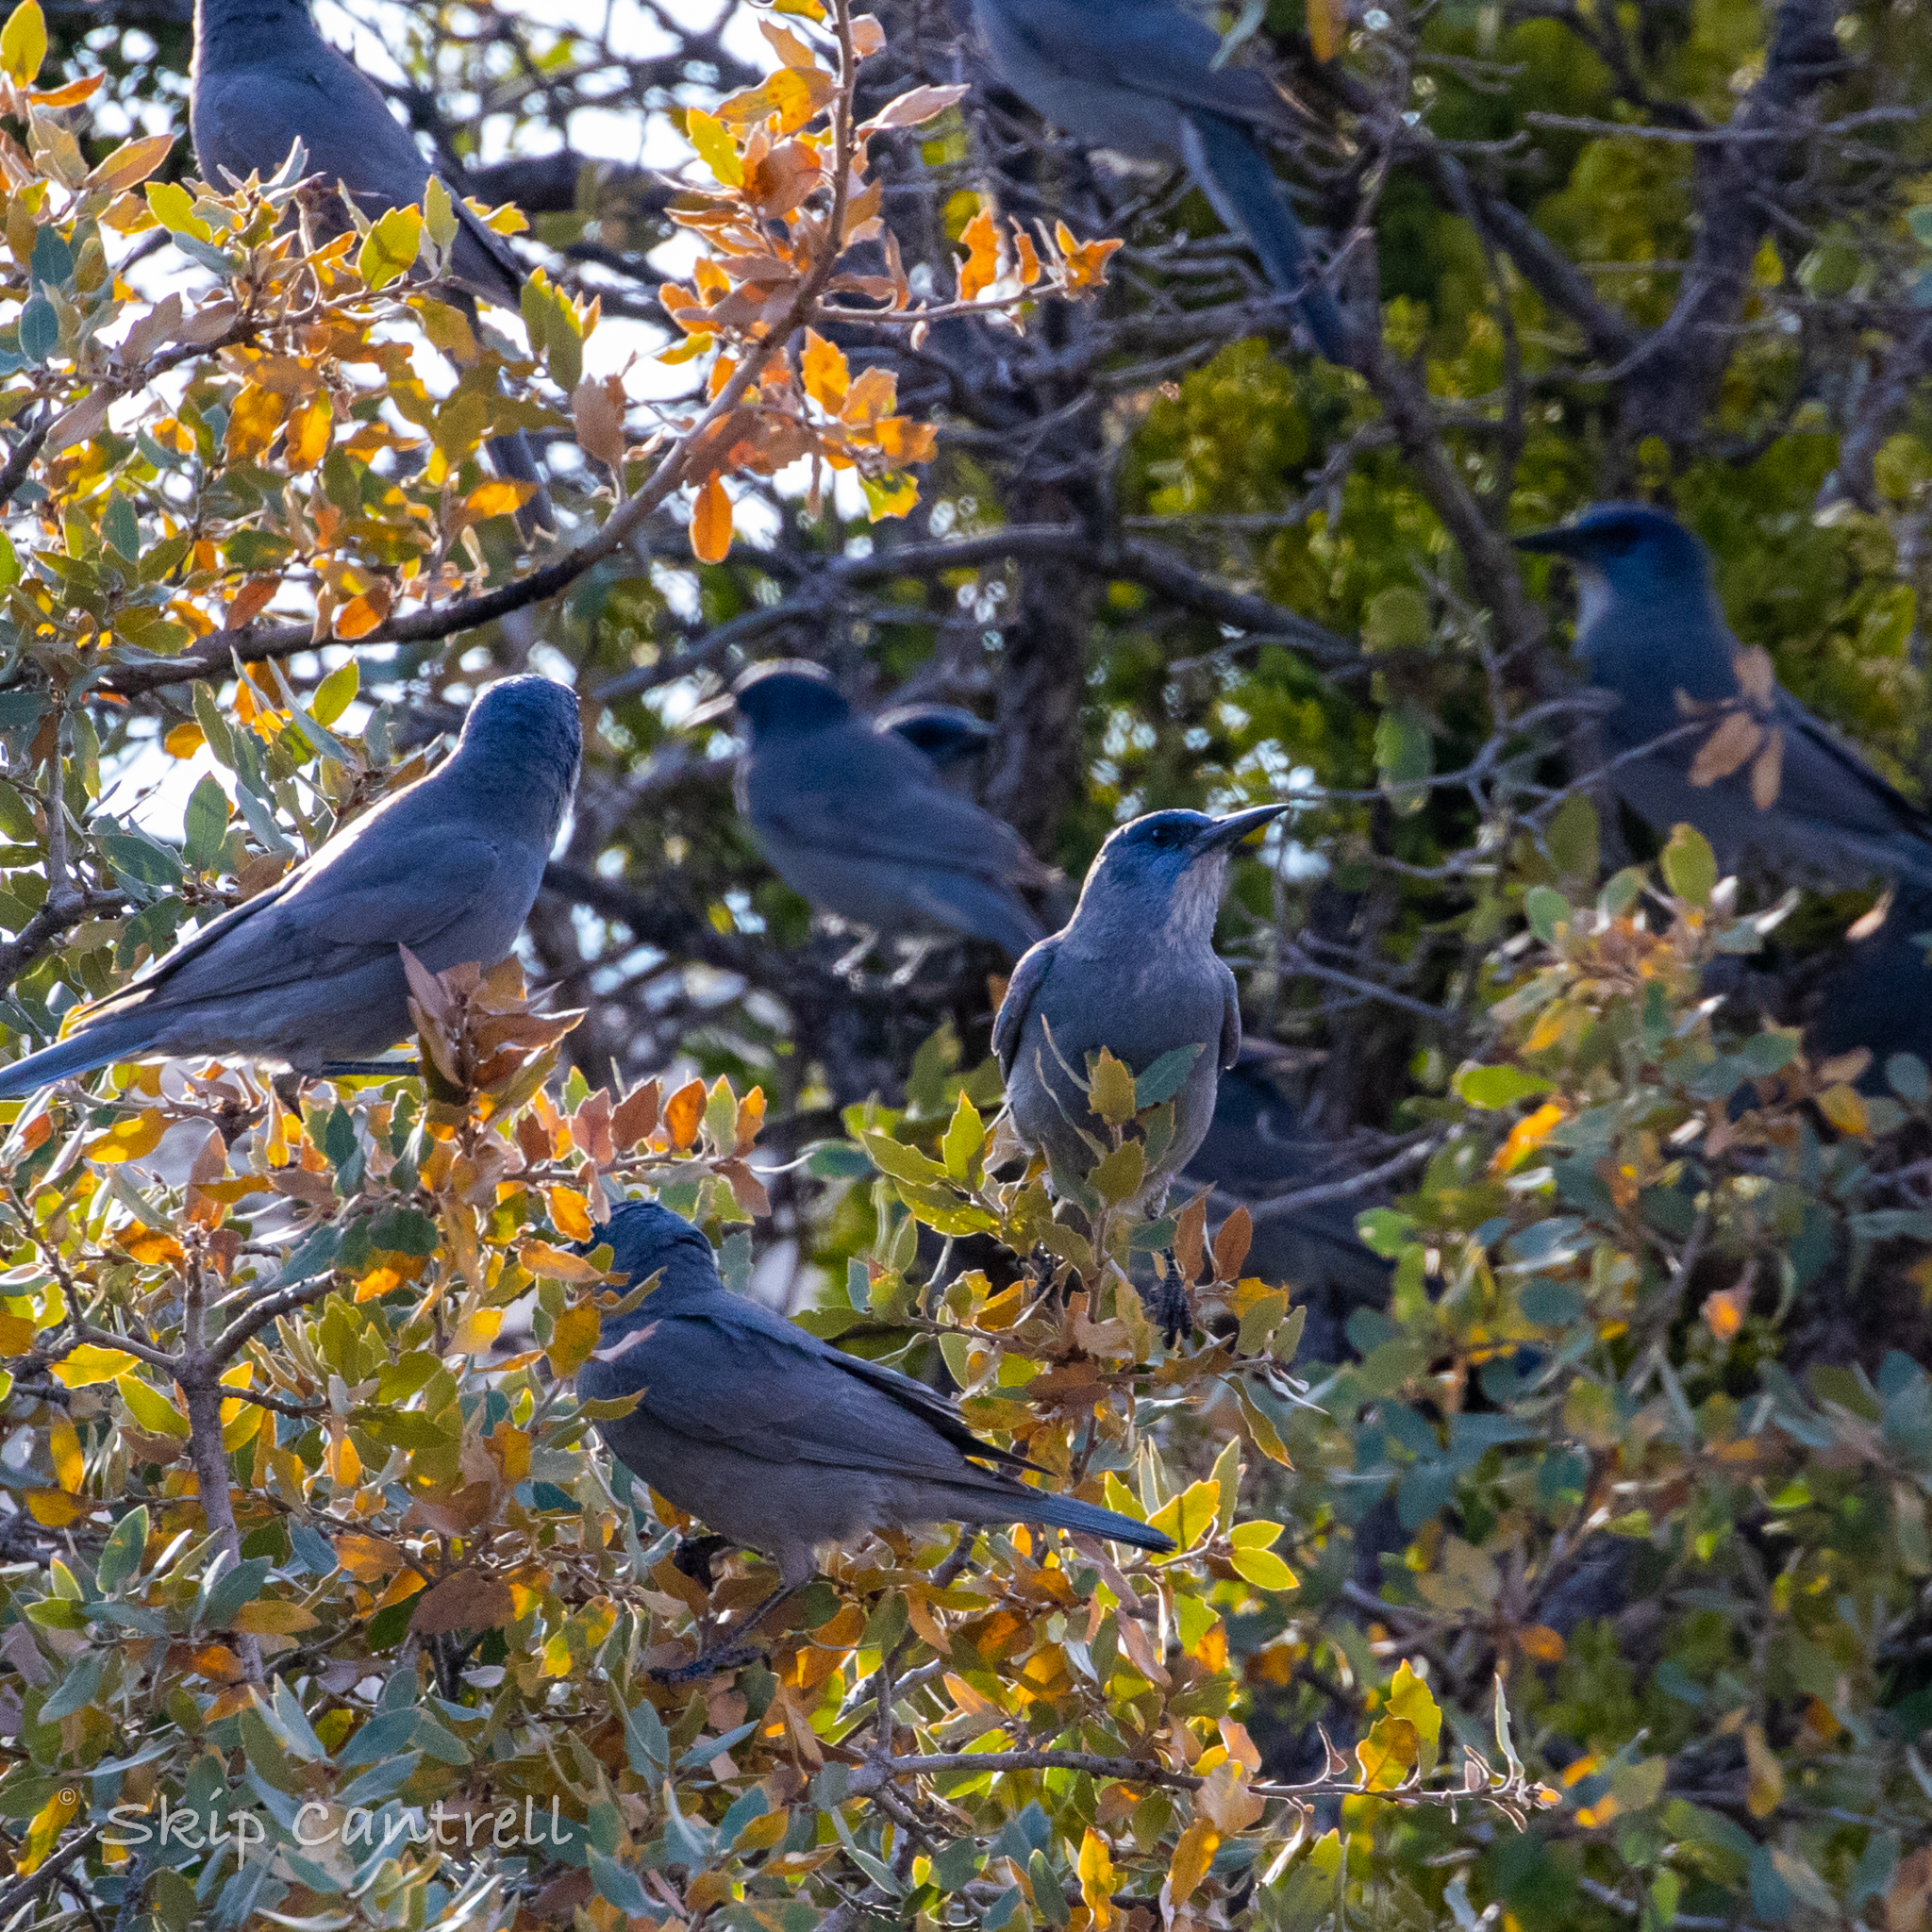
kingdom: Animalia
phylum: Chordata
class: Aves
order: Passeriformes
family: Corvidae
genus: Gymnorhinus
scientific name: Gymnorhinus cyanocephalus
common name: Pinyon jay
